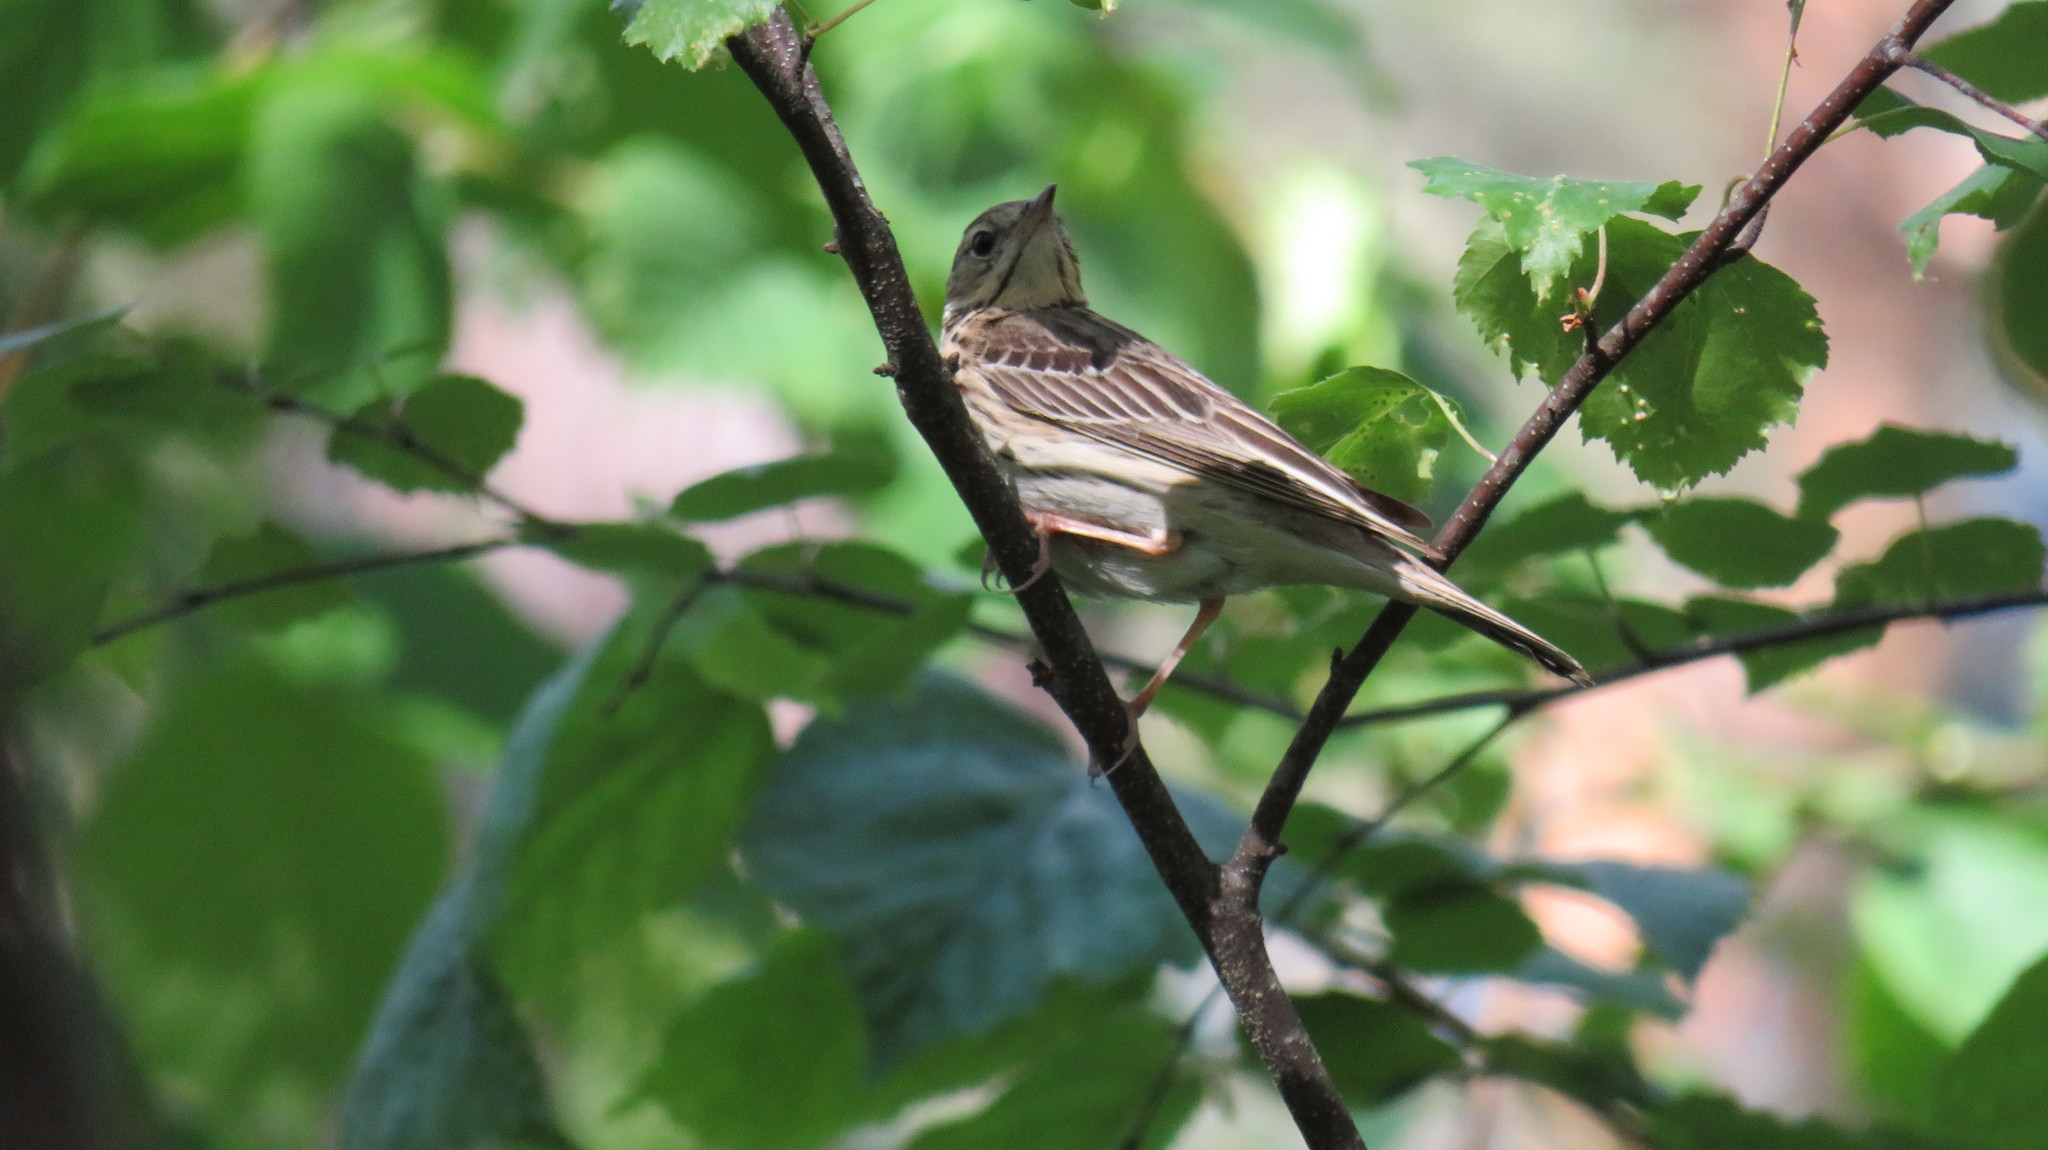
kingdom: Animalia
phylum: Chordata
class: Aves
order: Passeriformes
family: Motacillidae
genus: Anthus
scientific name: Anthus trivialis
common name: Tree pipit
